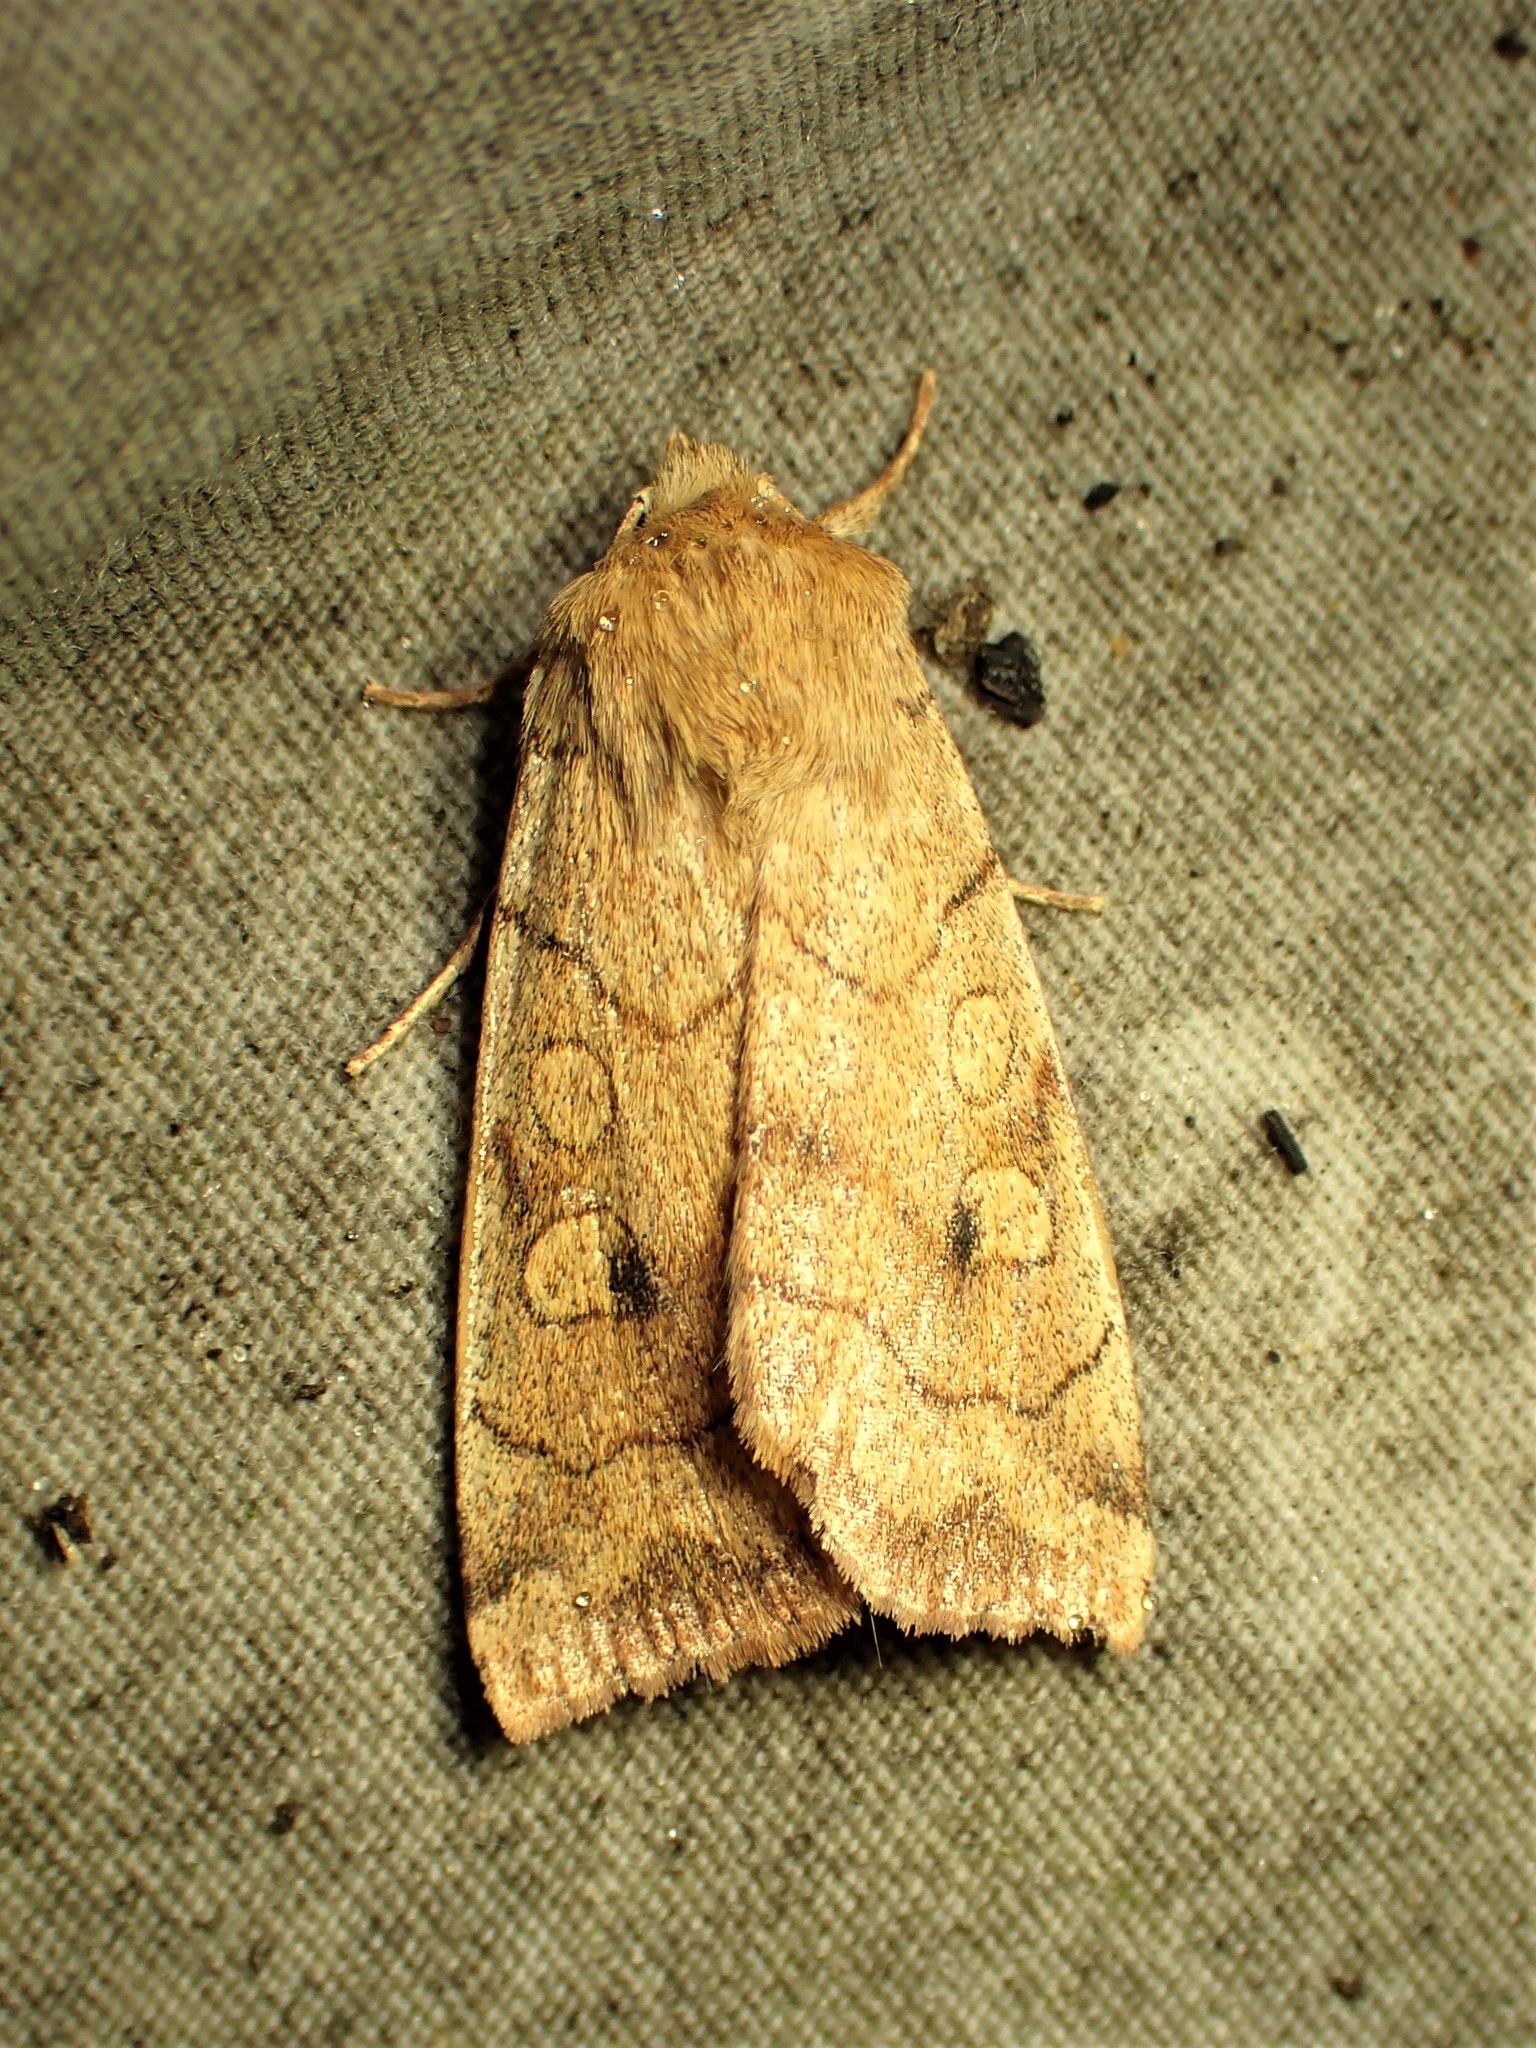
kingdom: Animalia
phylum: Arthropoda
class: Insecta
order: Lepidoptera
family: Noctuidae
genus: Enargia
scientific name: Enargia infumata
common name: Smoked sallow
